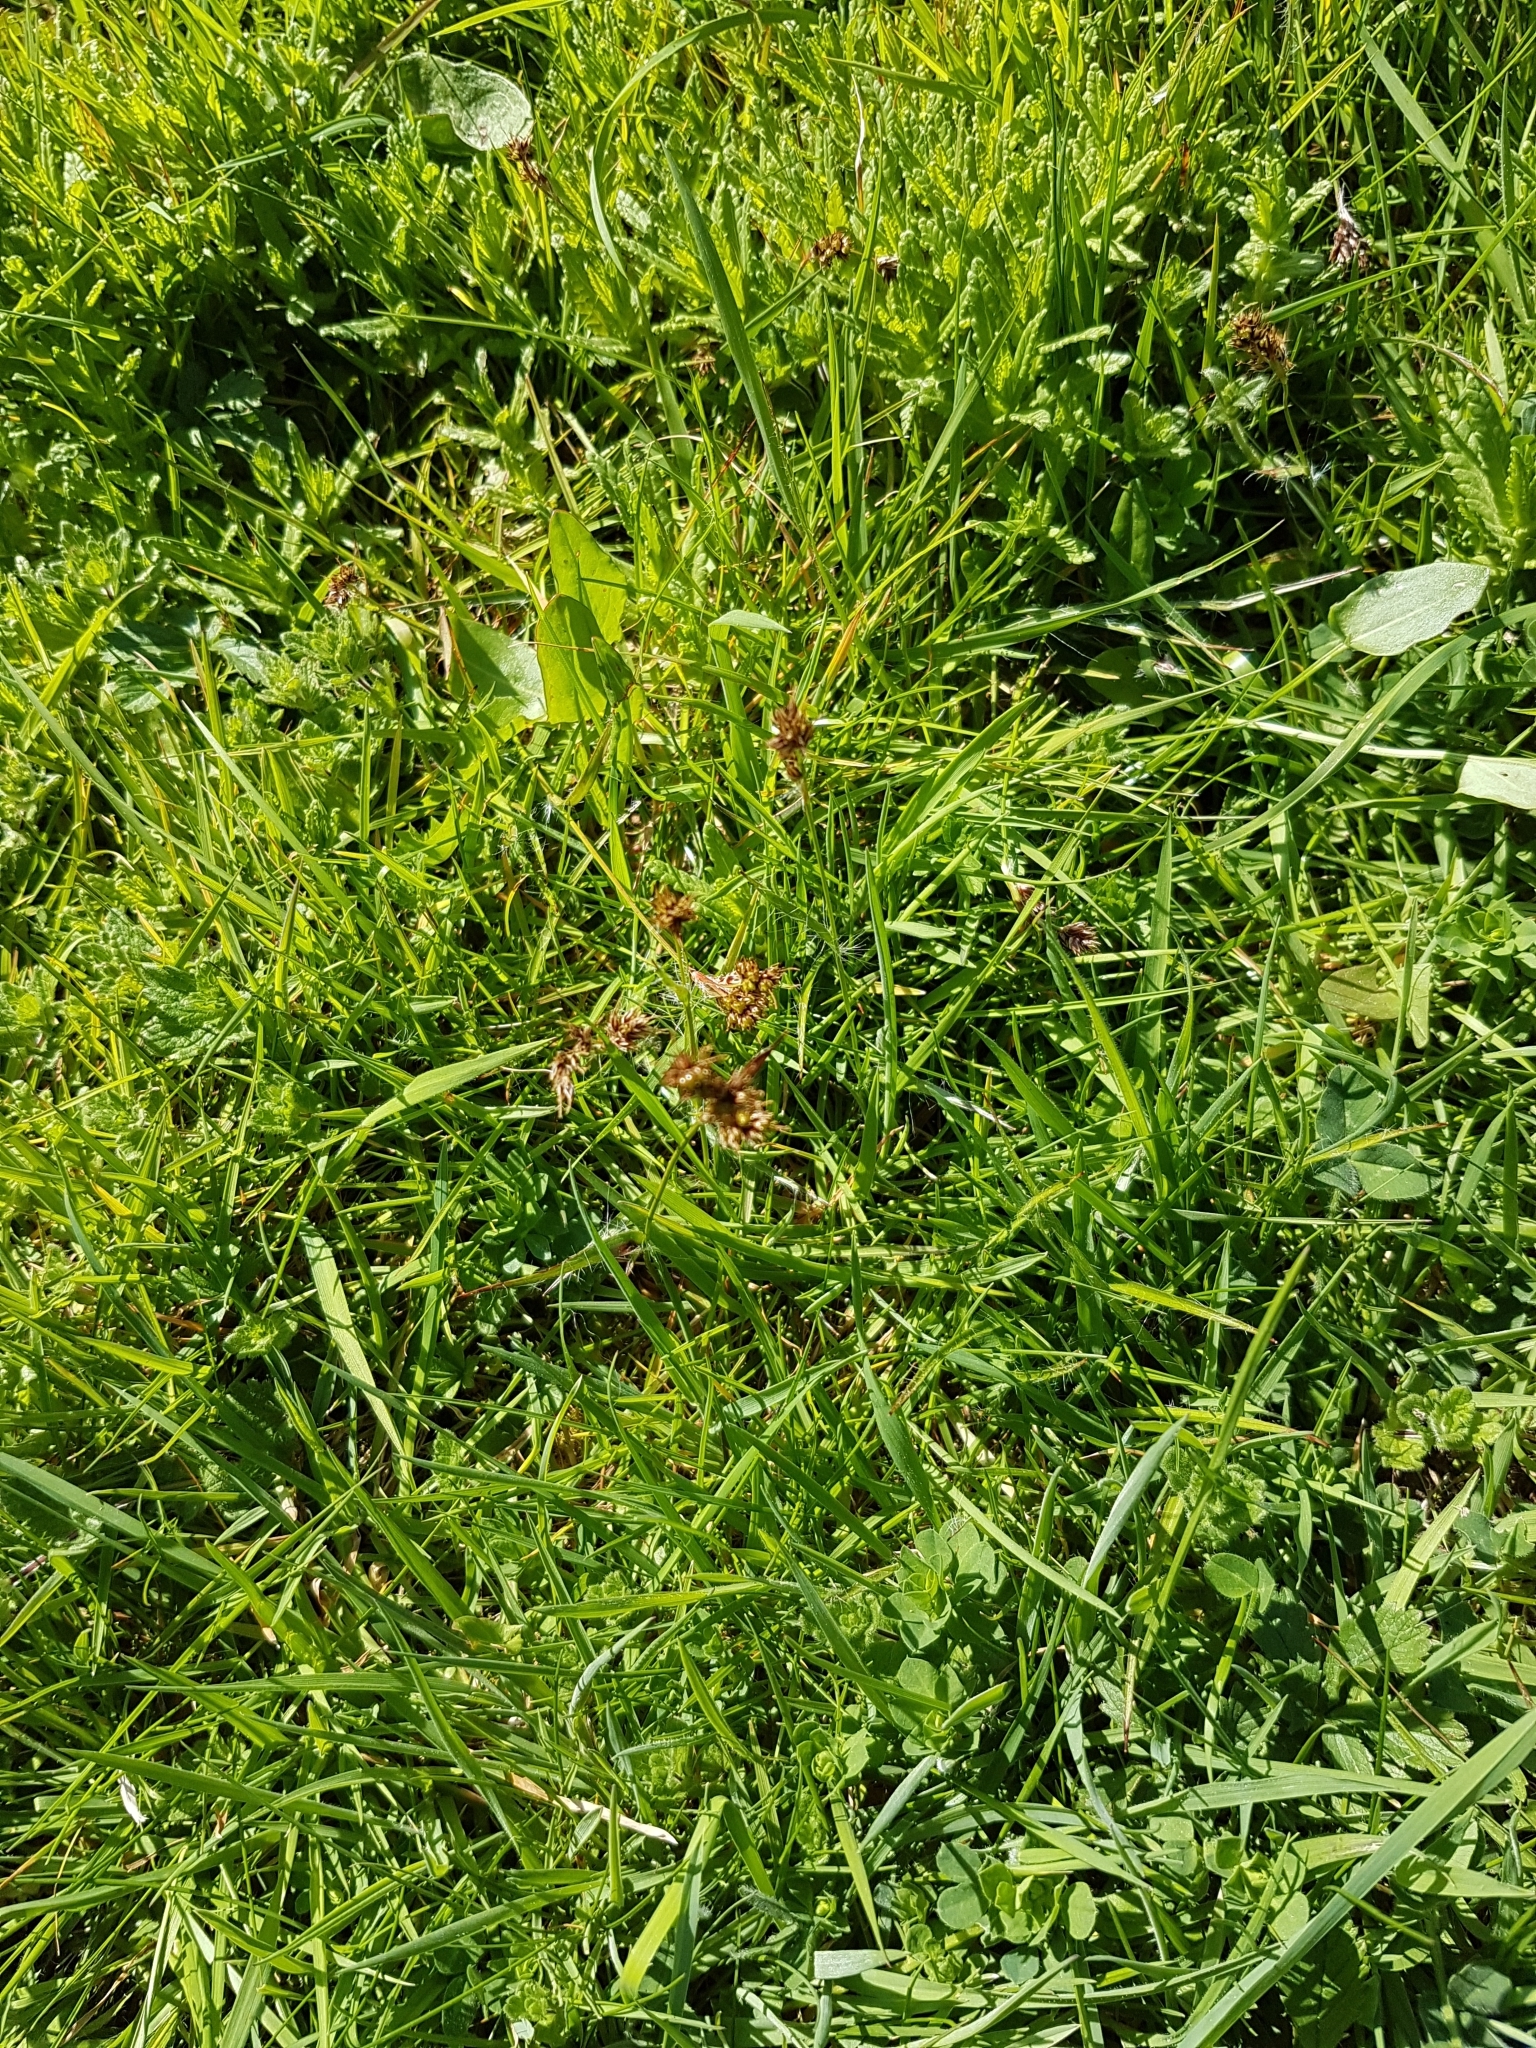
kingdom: Plantae
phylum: Tracheophyta
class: Liliopsida
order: Poales
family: Juncaceae
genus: Luzula
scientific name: Luzula campestris
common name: Field wood-rush
